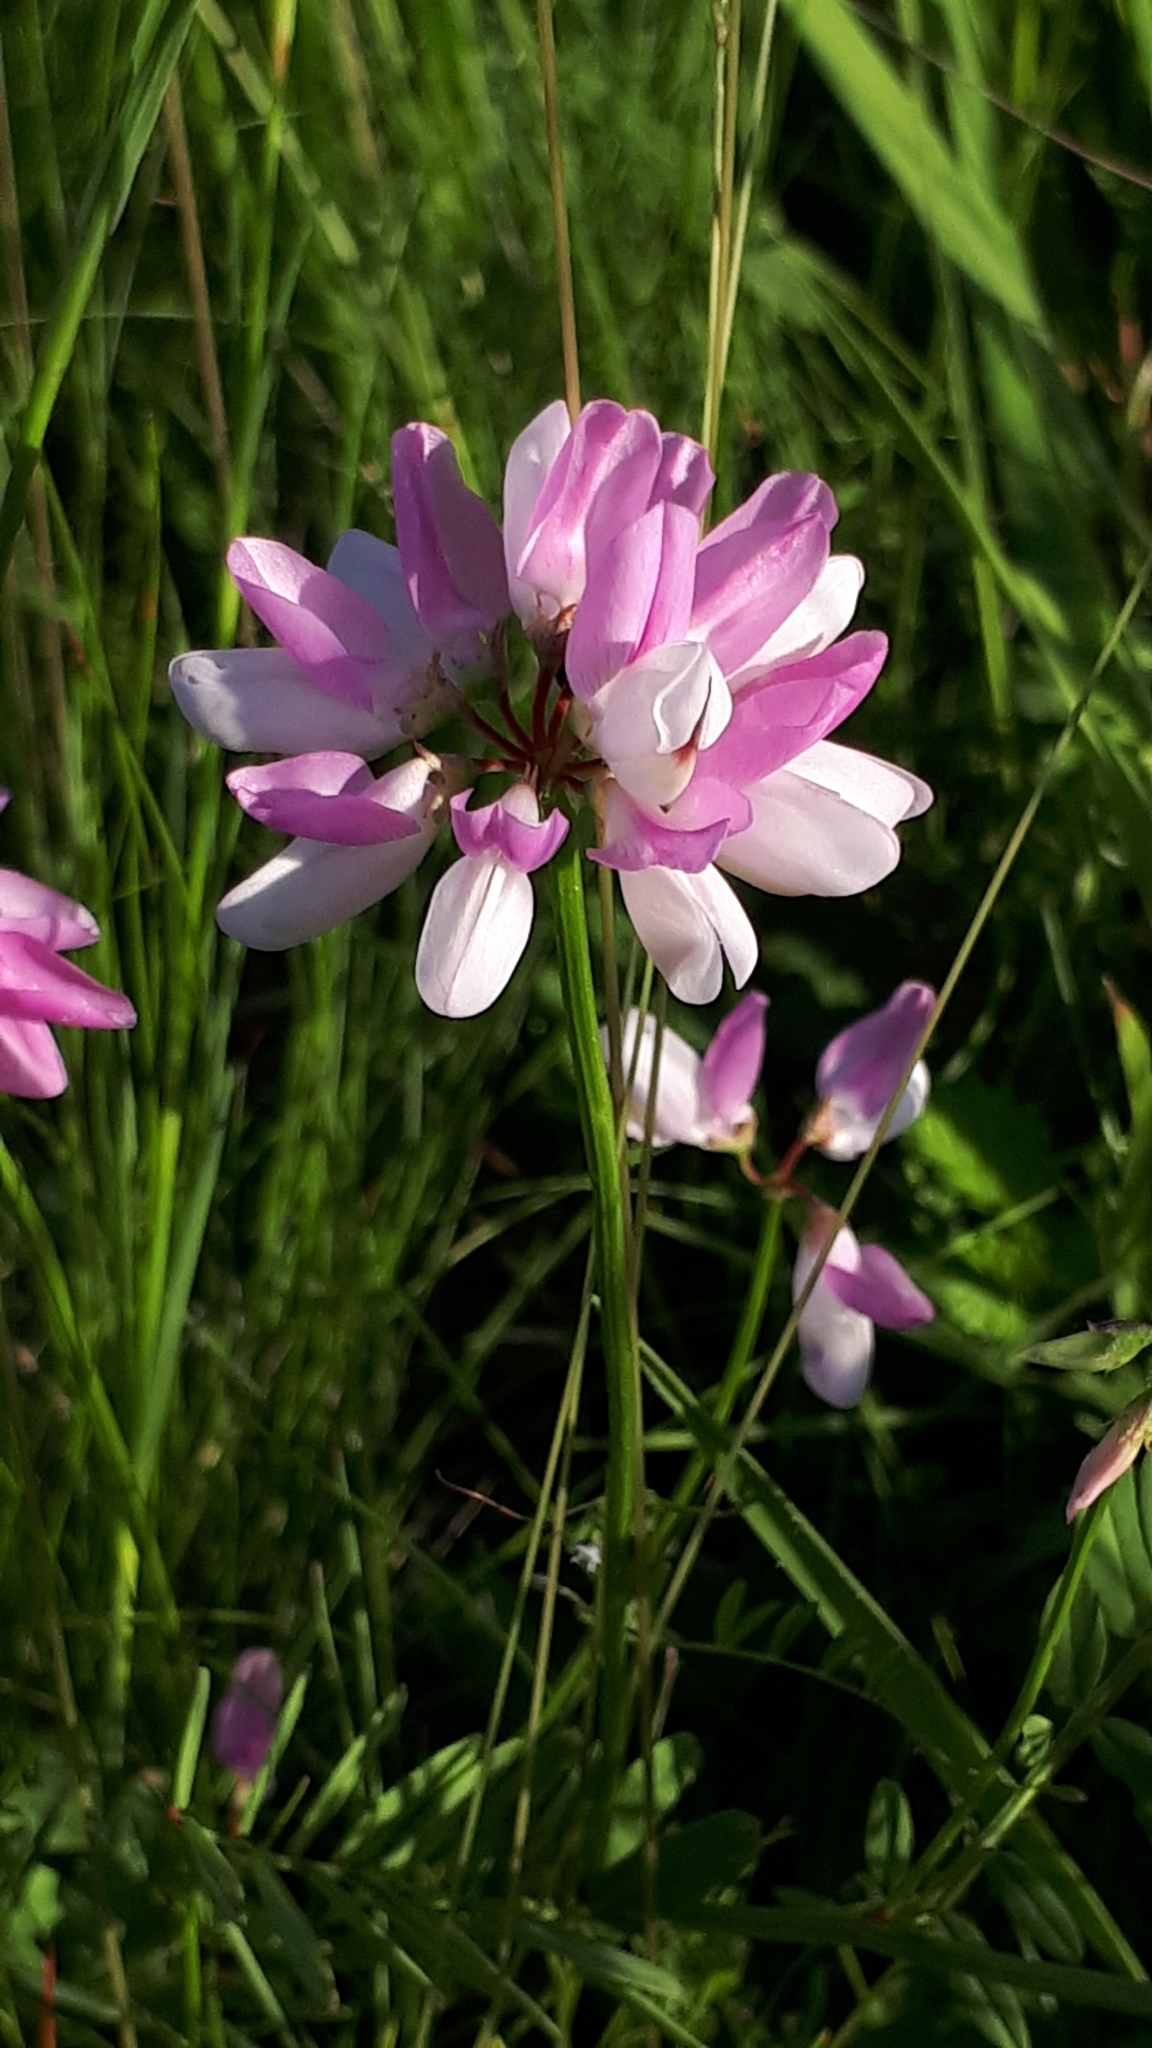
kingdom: Plantae
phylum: Tracheophyta
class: Magnoliopsida
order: Fabales
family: Fabaceae
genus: Coronilla
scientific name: Coronilla varia
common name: Crownvetch
